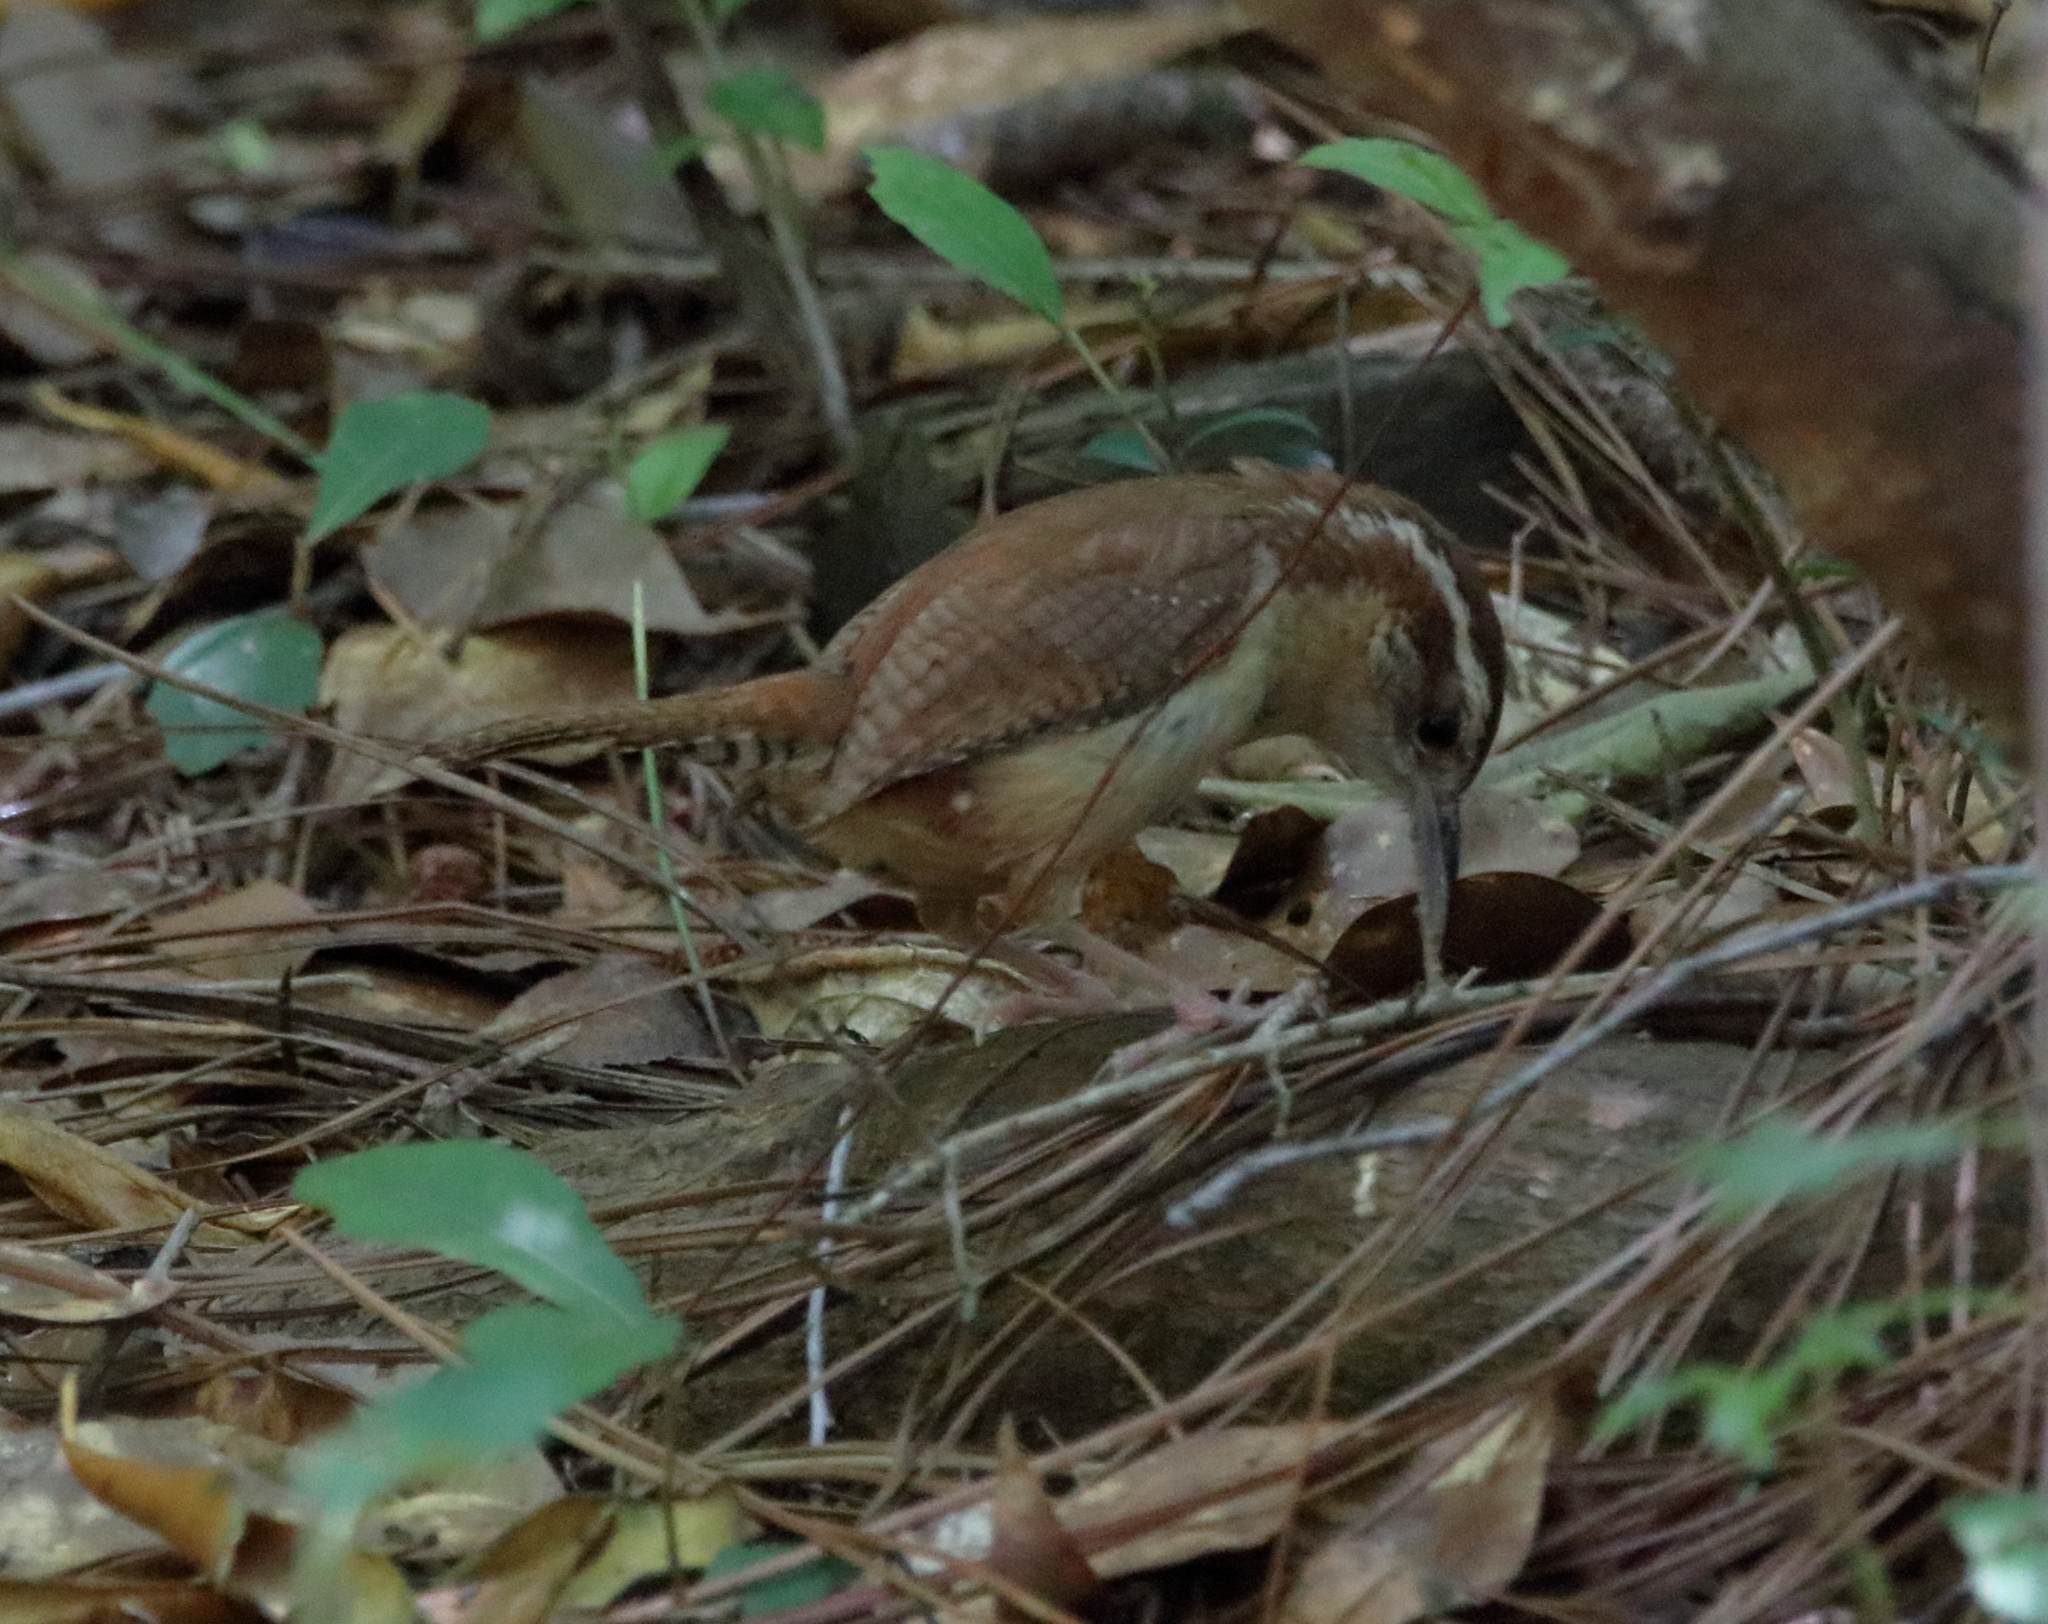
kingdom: Animalia
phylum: Chordata
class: Aves
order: Passeriformes
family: Troglodytidae
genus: Thryothorus
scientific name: Thryothorus ludovicianus
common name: Carolina wren
